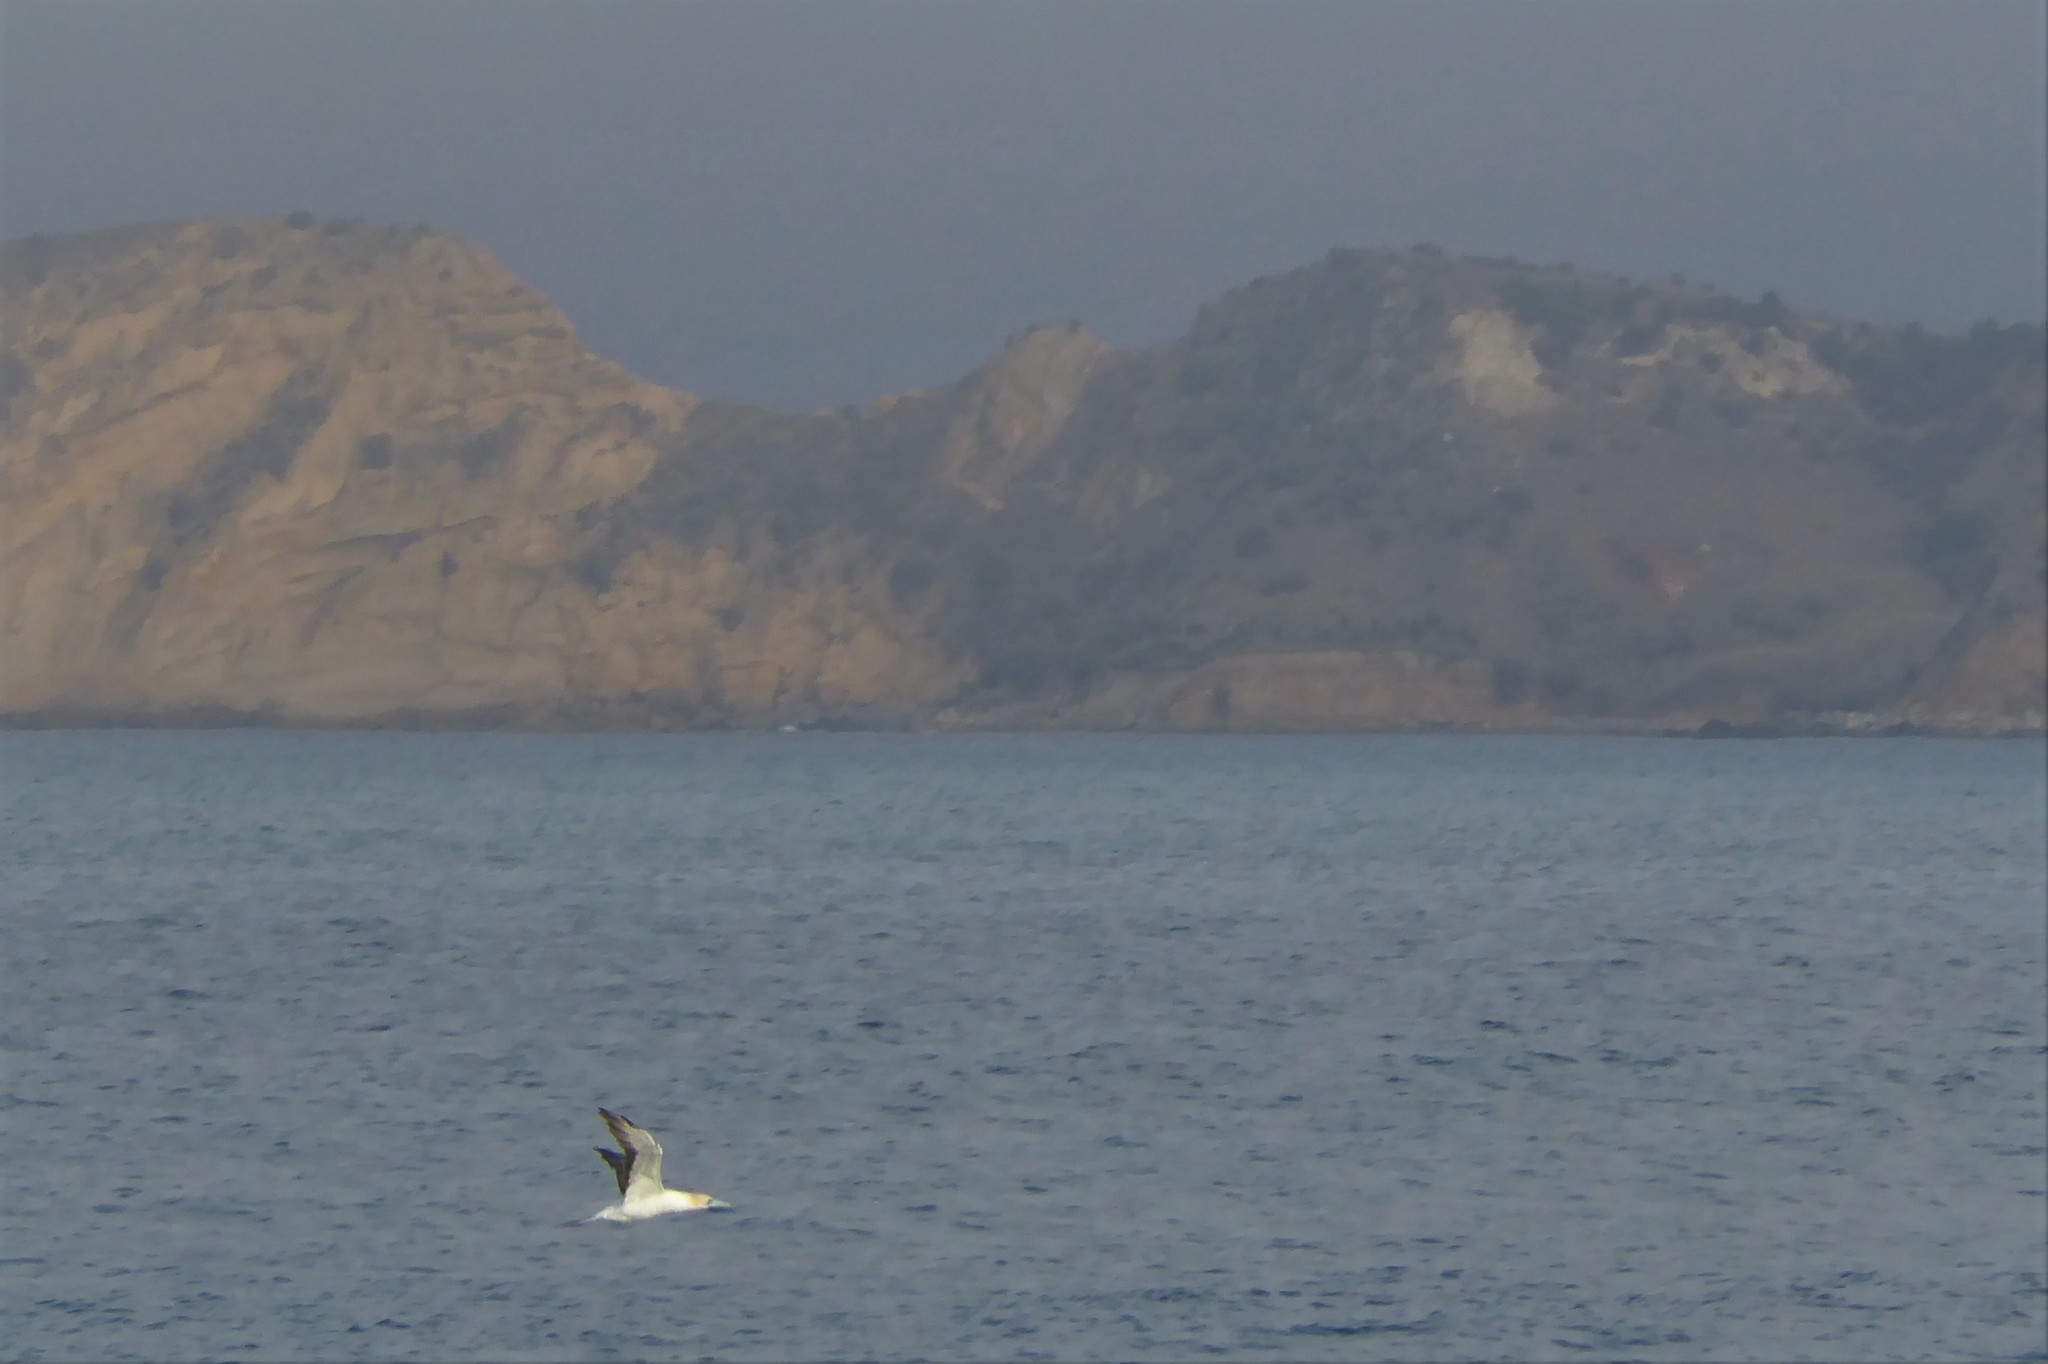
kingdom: Animalia
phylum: Chordata
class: Aves
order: Suliformes
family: Sulidae
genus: Morus
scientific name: Morus serrator
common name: Australasian gannet
